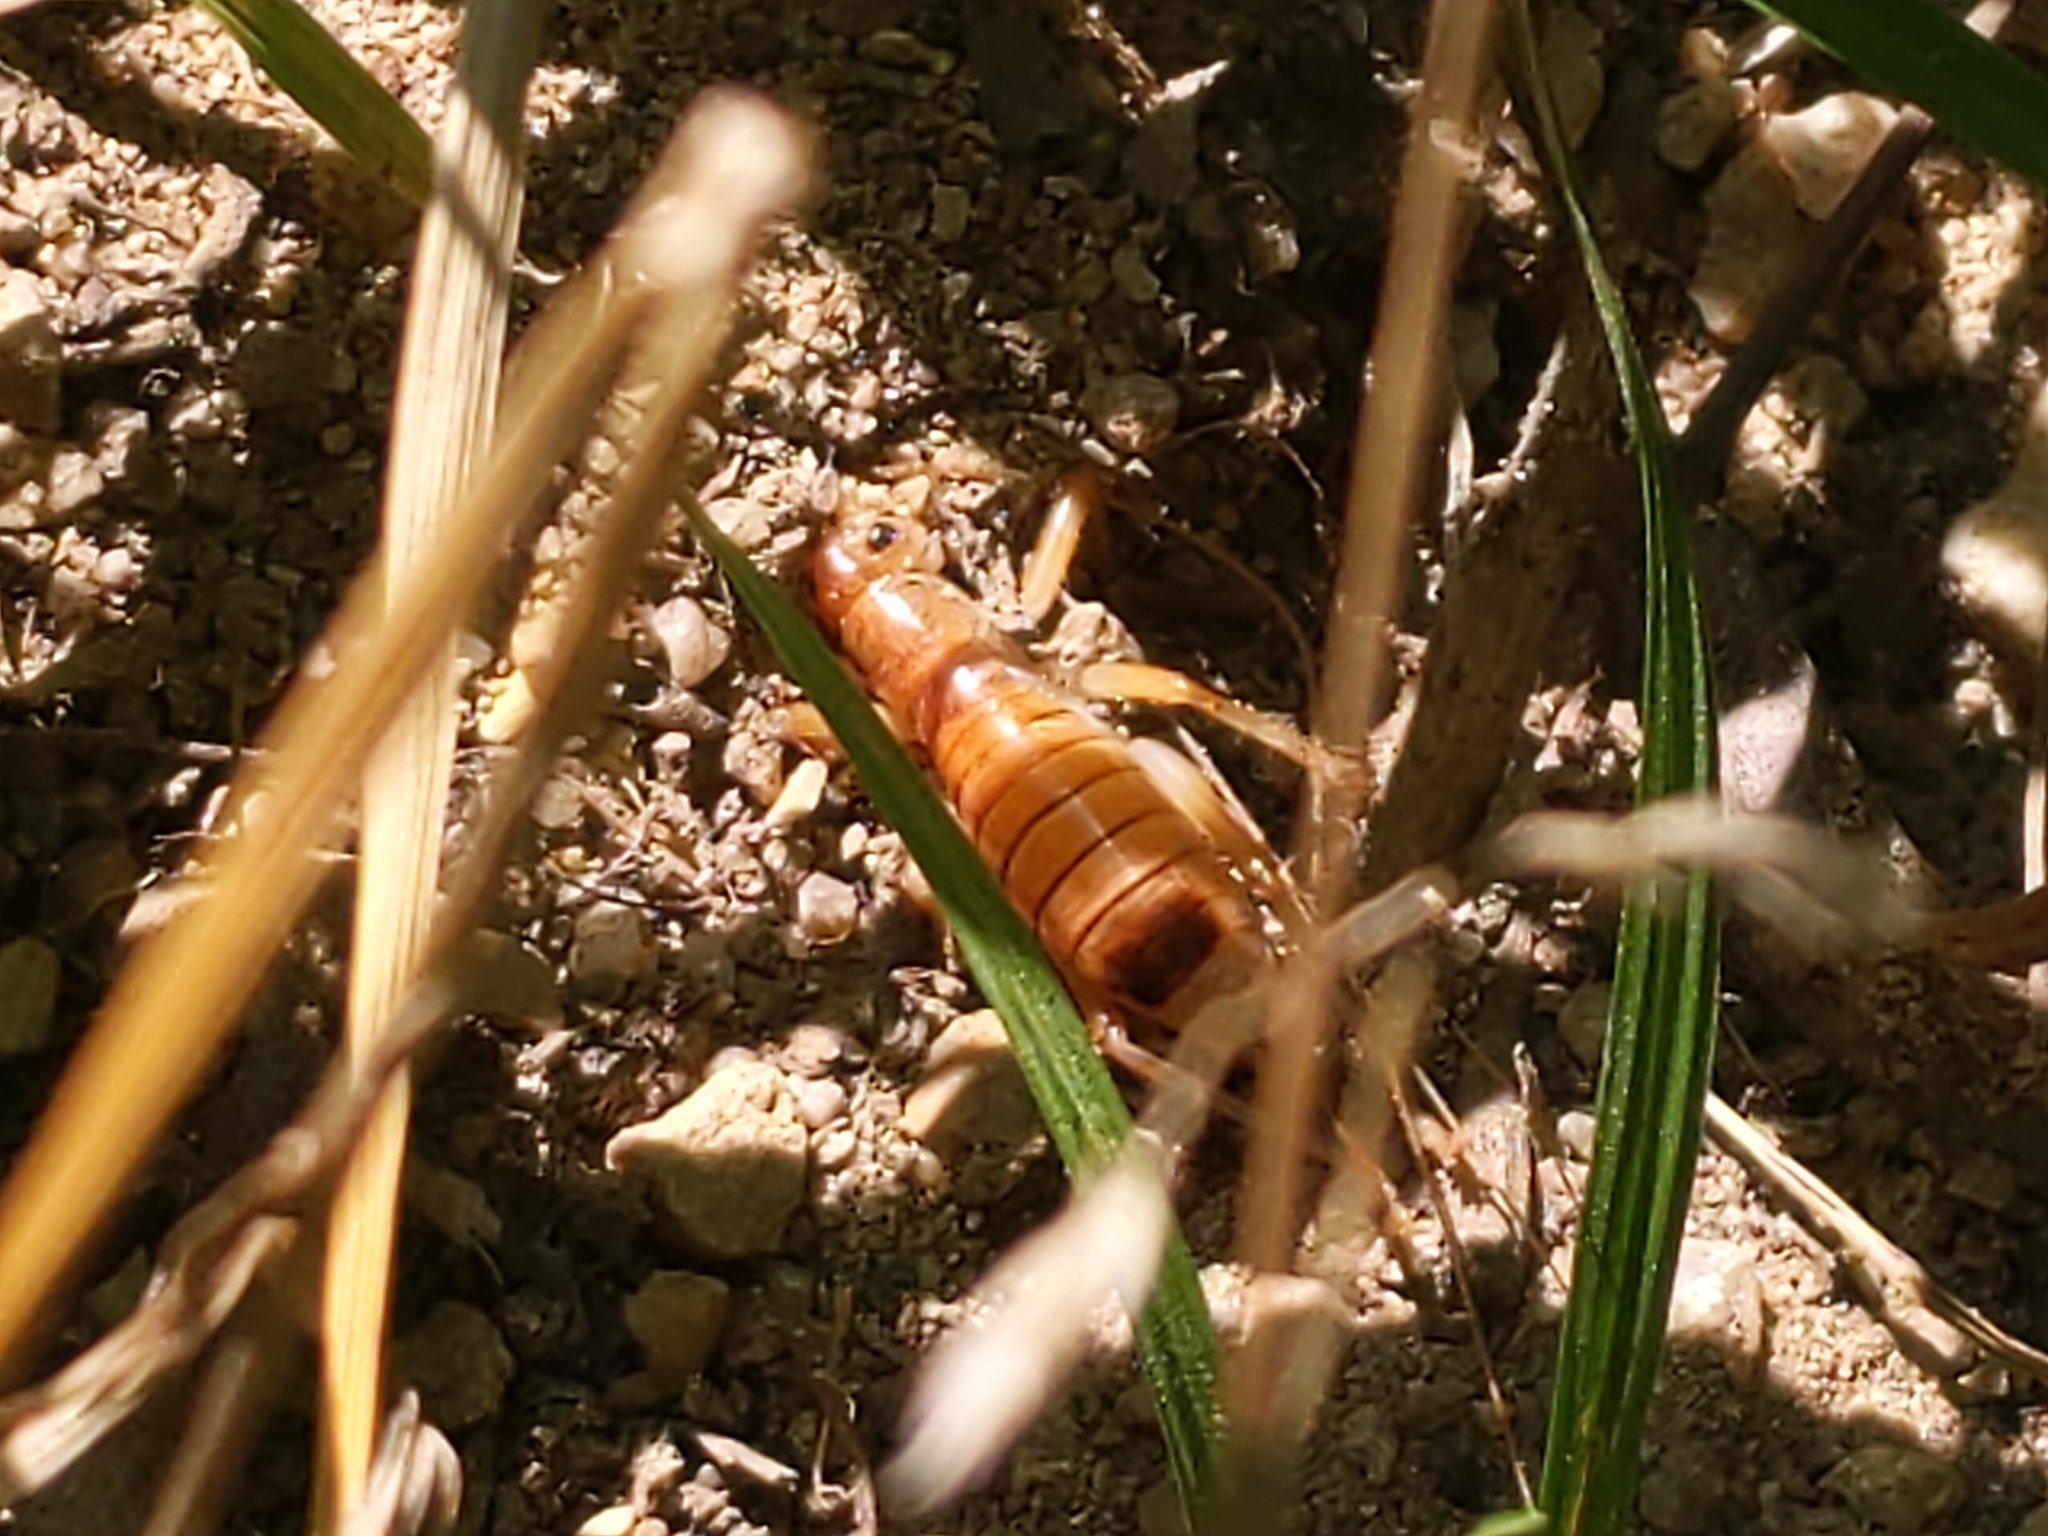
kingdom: Animalia
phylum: Arthropoda
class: Insecta
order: Orthoptera
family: Gryllacrididae
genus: Camptonotus
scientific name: Camptonotus carolinensis
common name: Carolina leaf-roller
